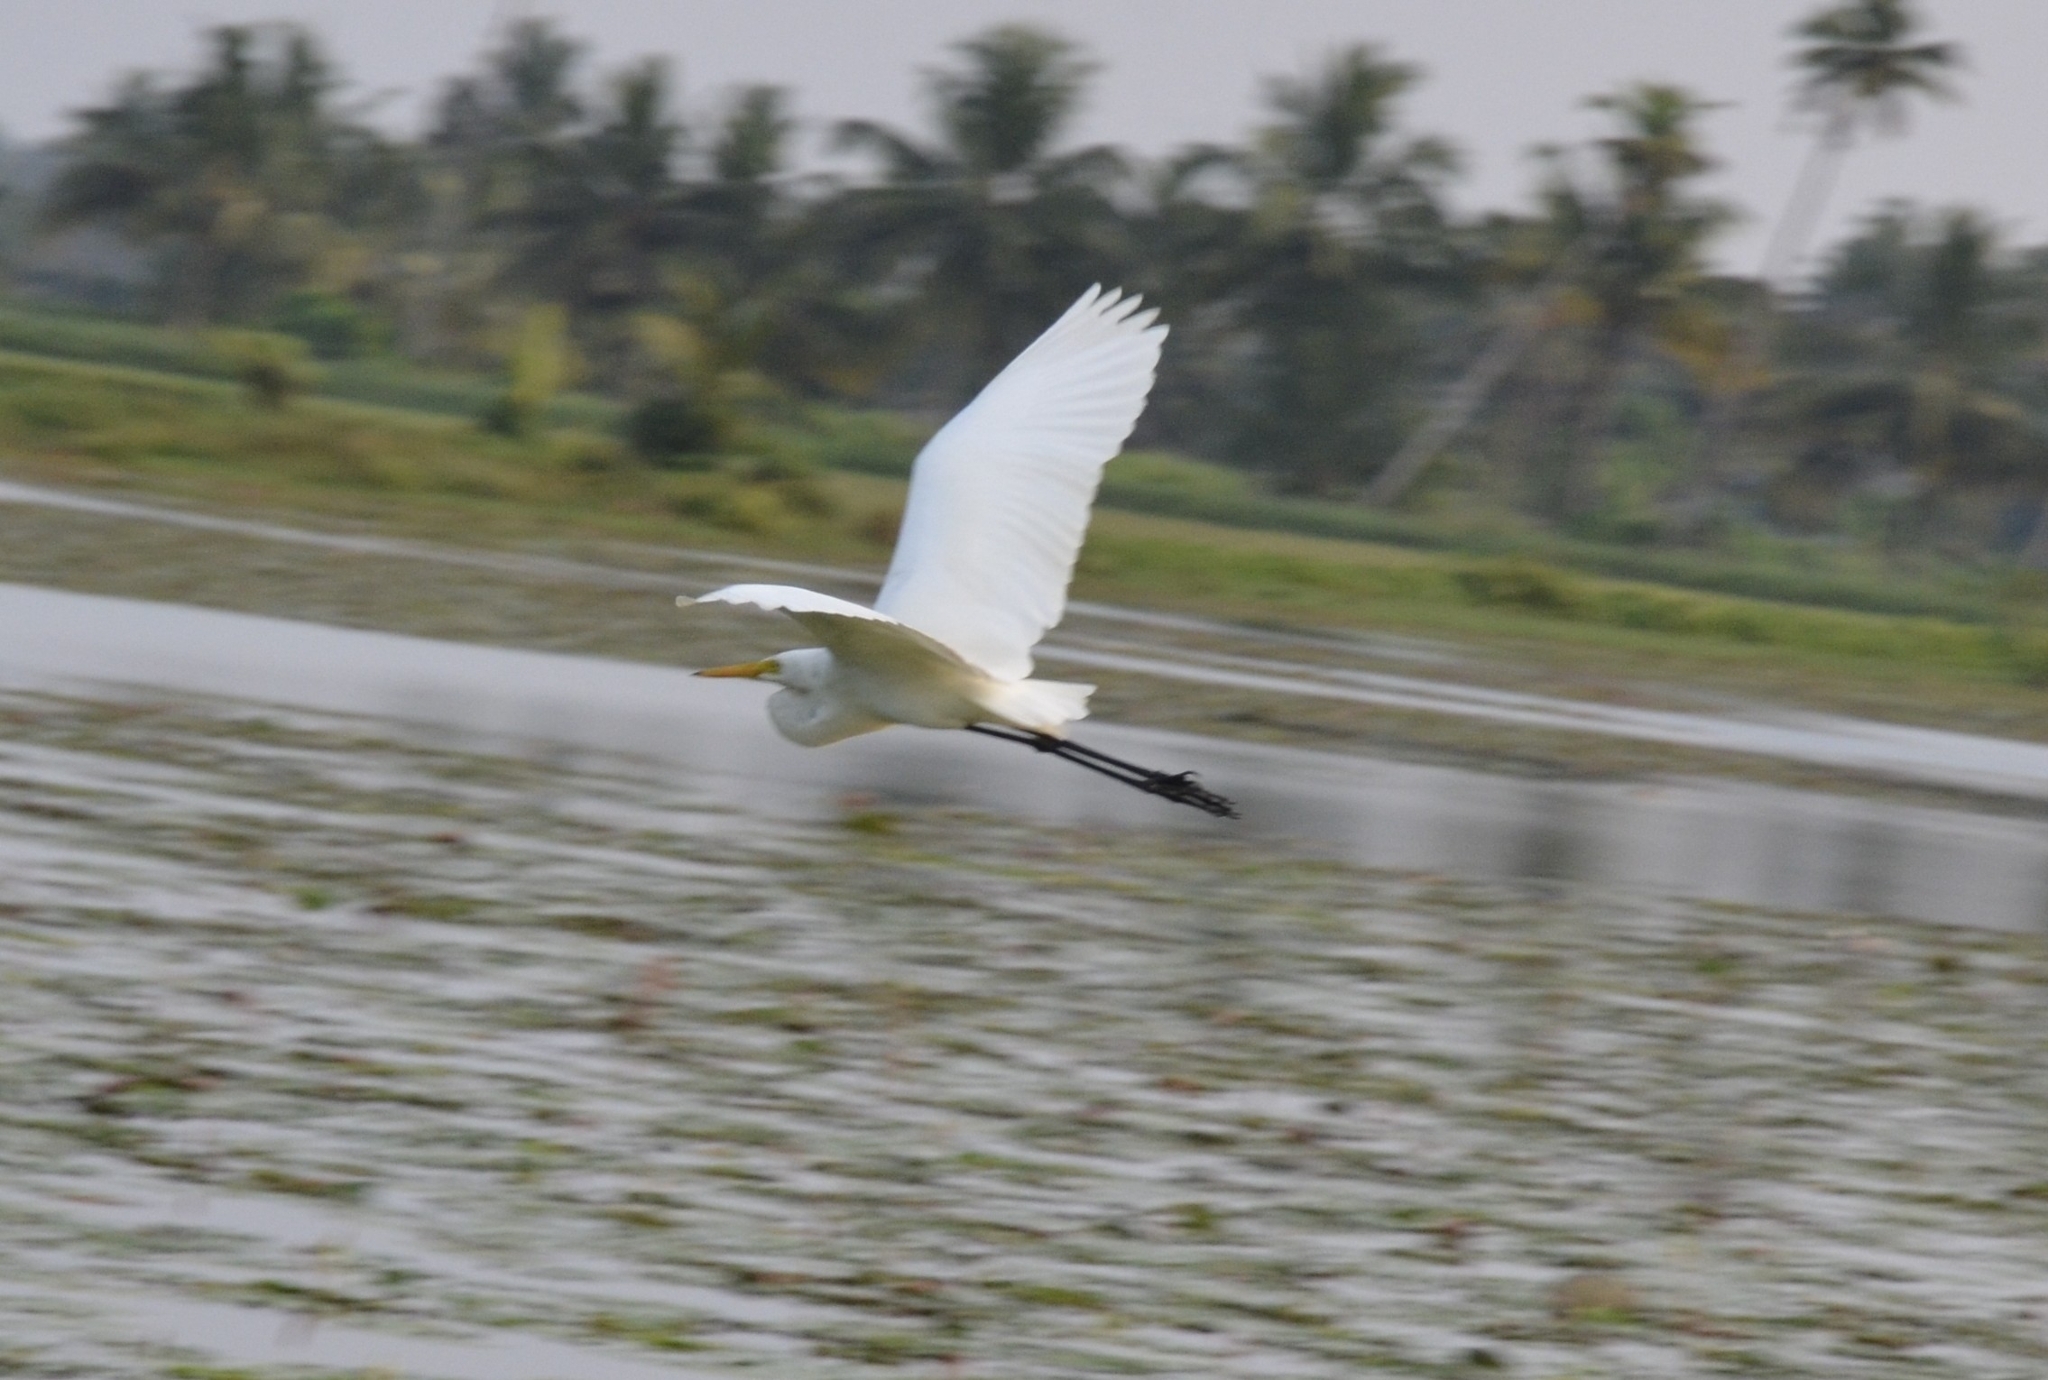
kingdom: Animalia
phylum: Chordata
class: Aves
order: Pelecaniformes
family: Ardeidae
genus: Egretta
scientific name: Egretta intermedia
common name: Intermediate egret
